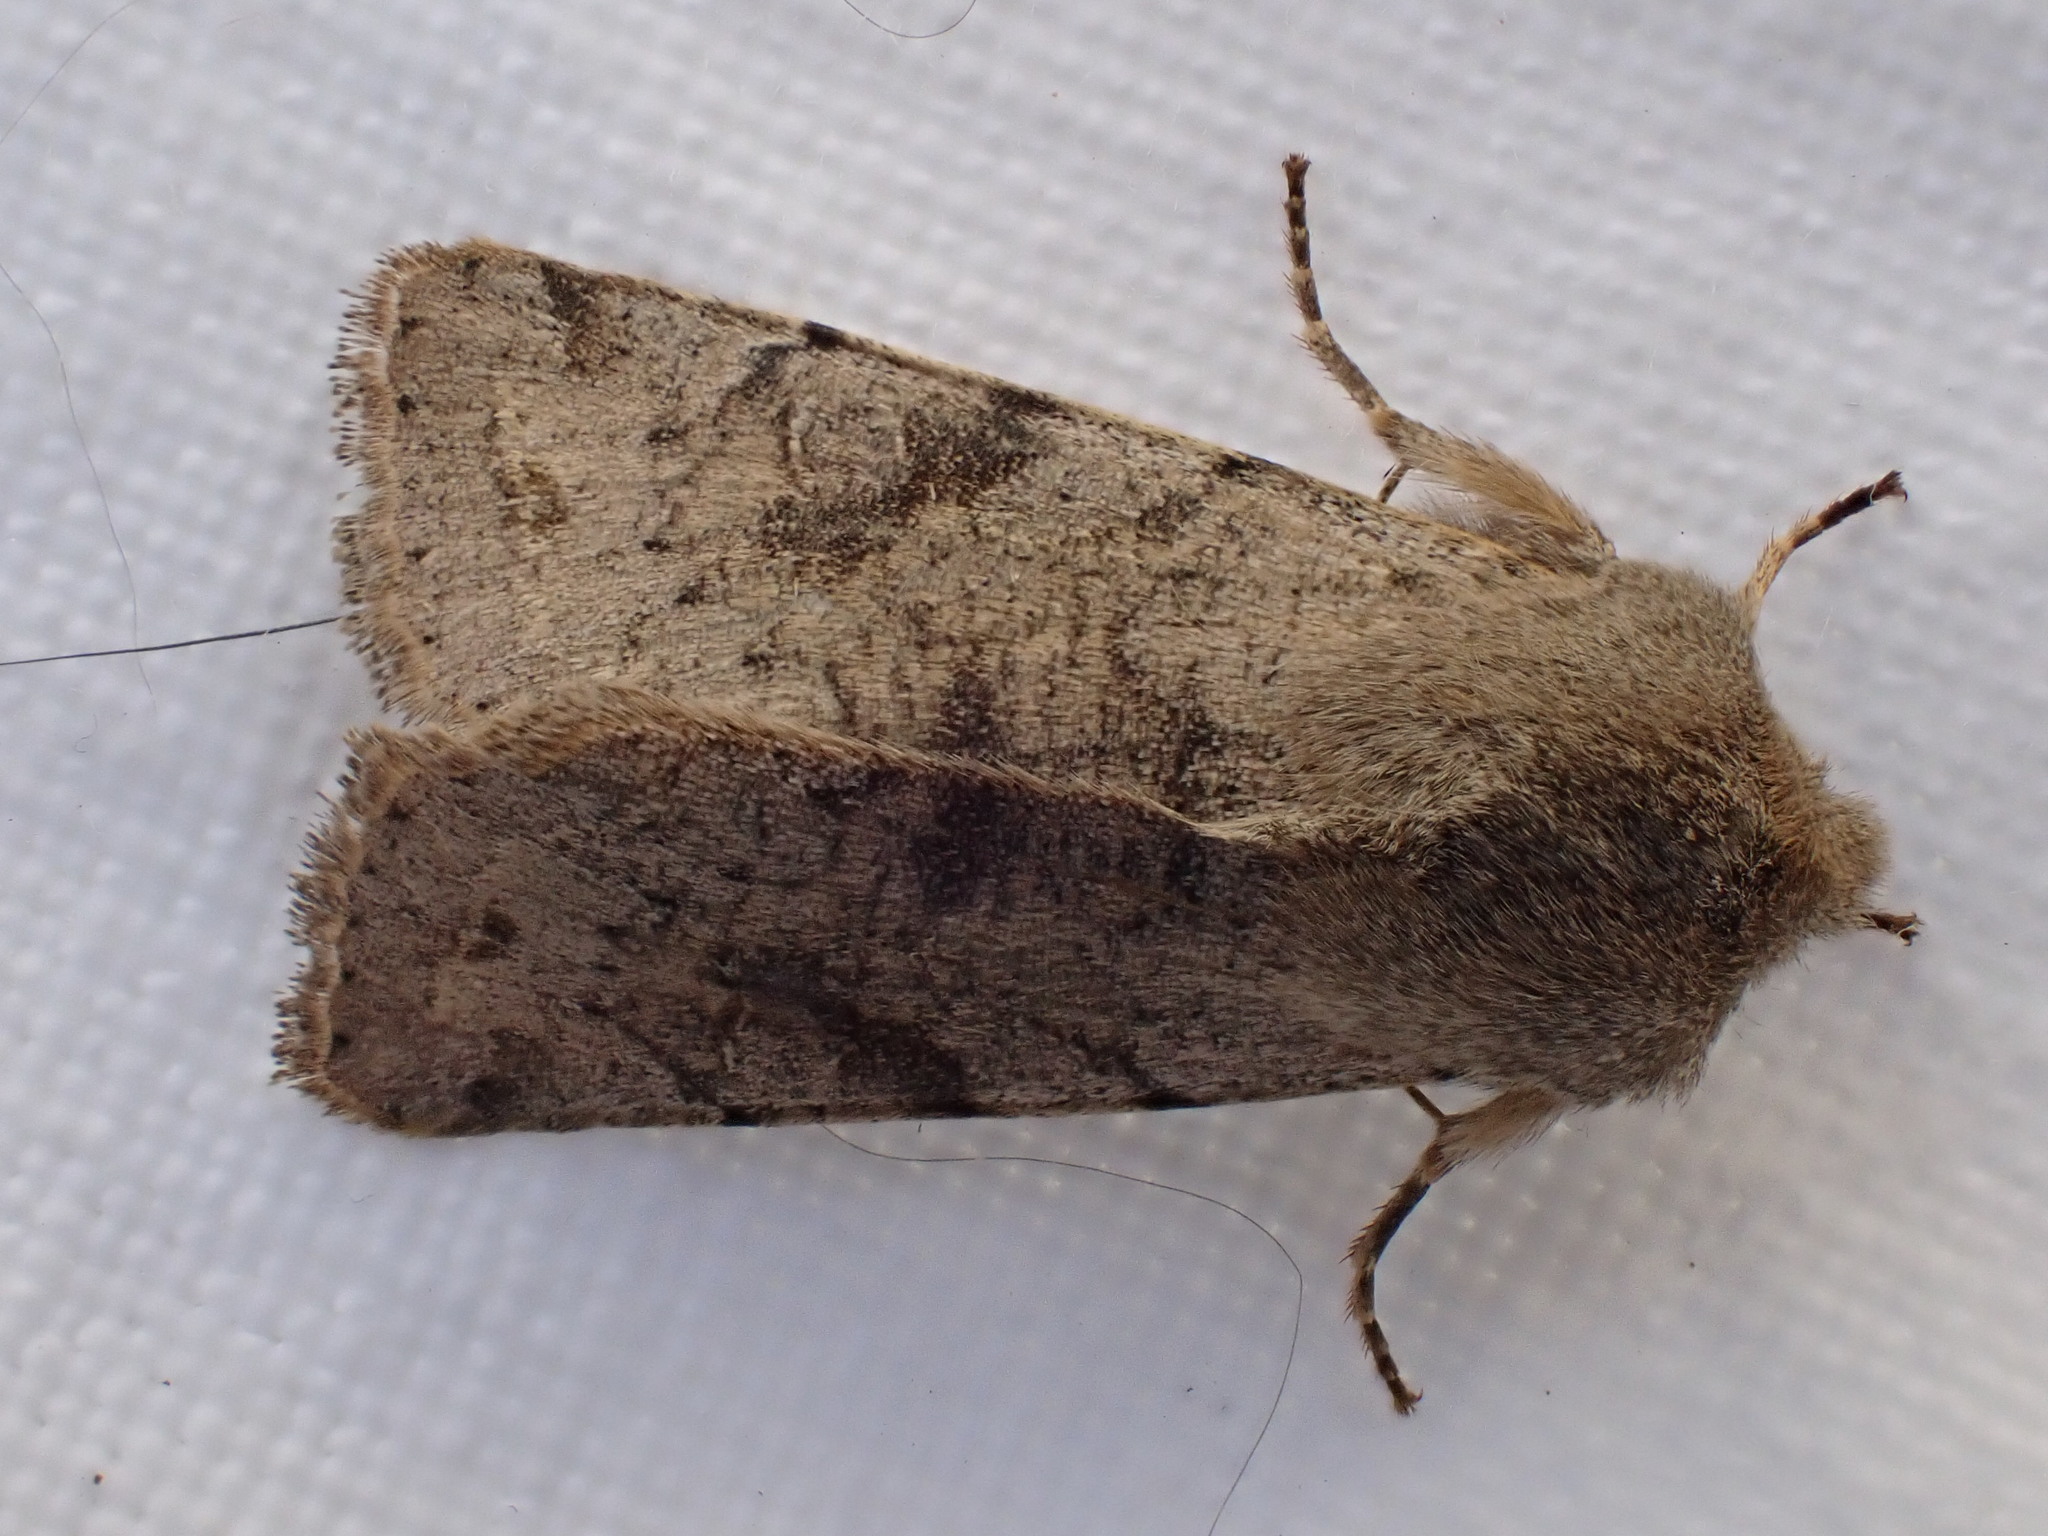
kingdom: Animalia
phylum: Arthropoda
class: Insecta
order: Lepidoptera
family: Noctuidae
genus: Orthosia
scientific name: Orthosia incerta
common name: Clouded drab
